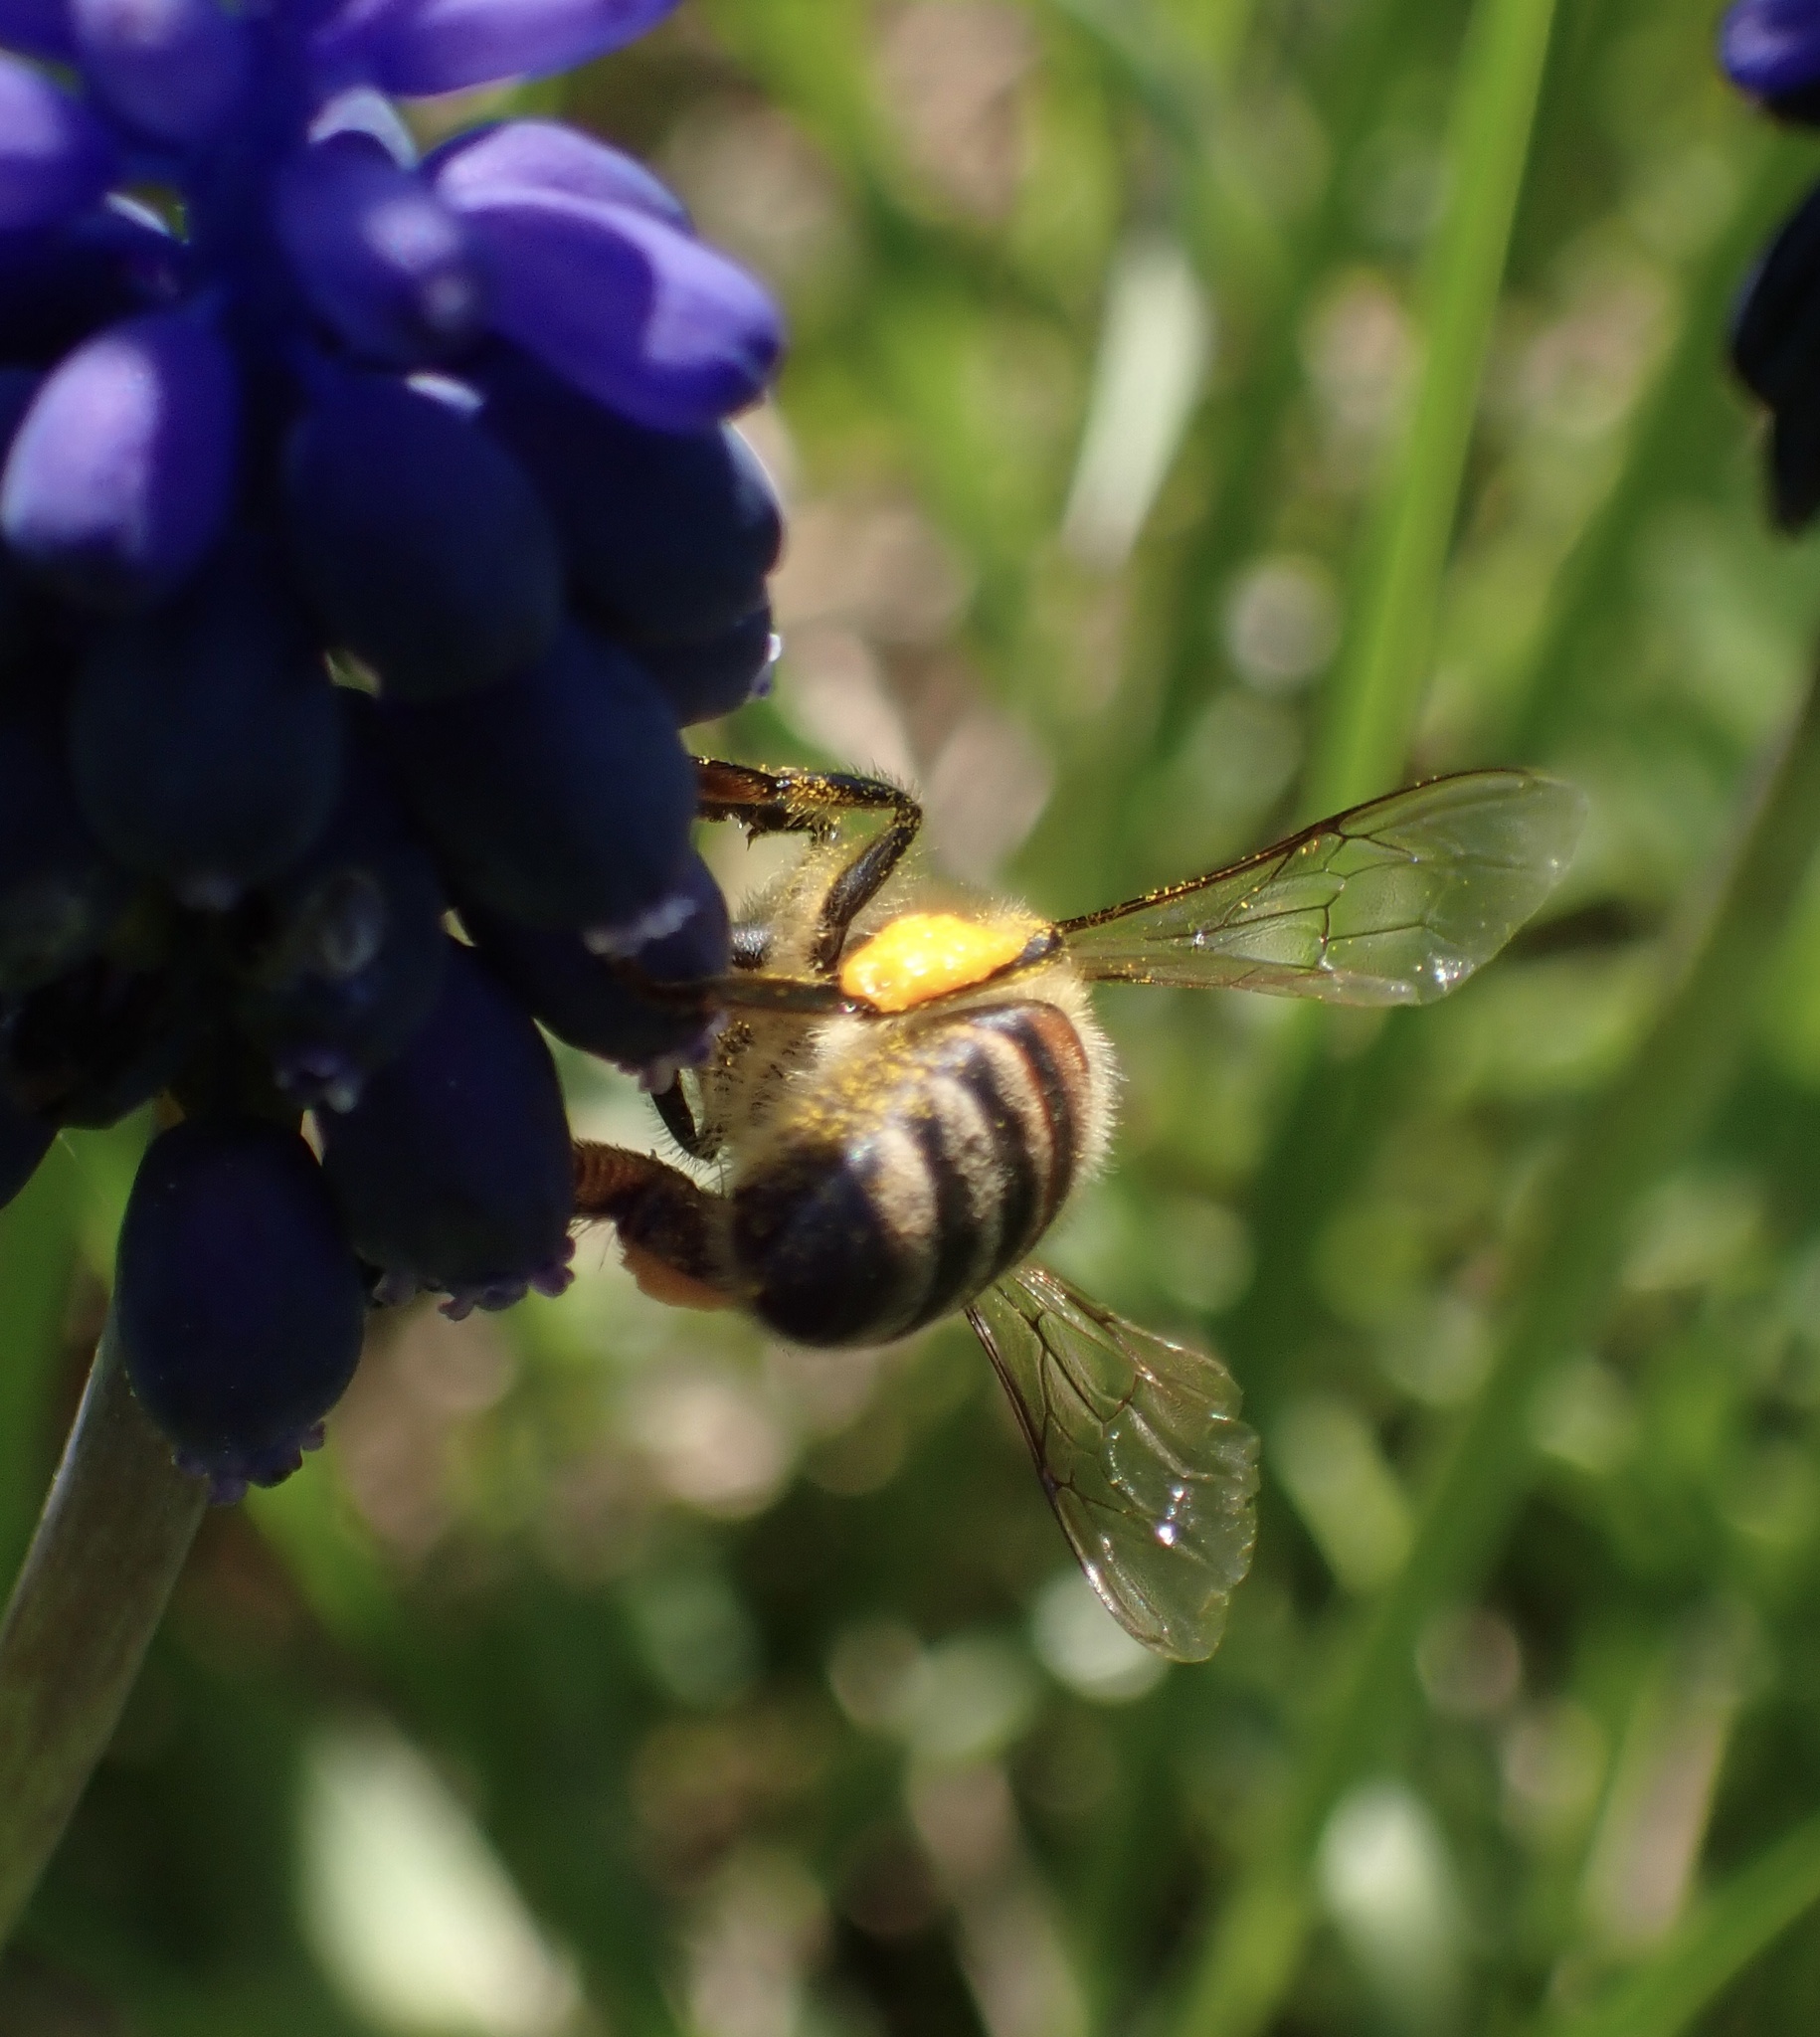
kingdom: Animalia
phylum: Arthropoda
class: Insecta
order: Hymenoptera
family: Apidae
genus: Apis
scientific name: Apis mellifera
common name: Honey bee
